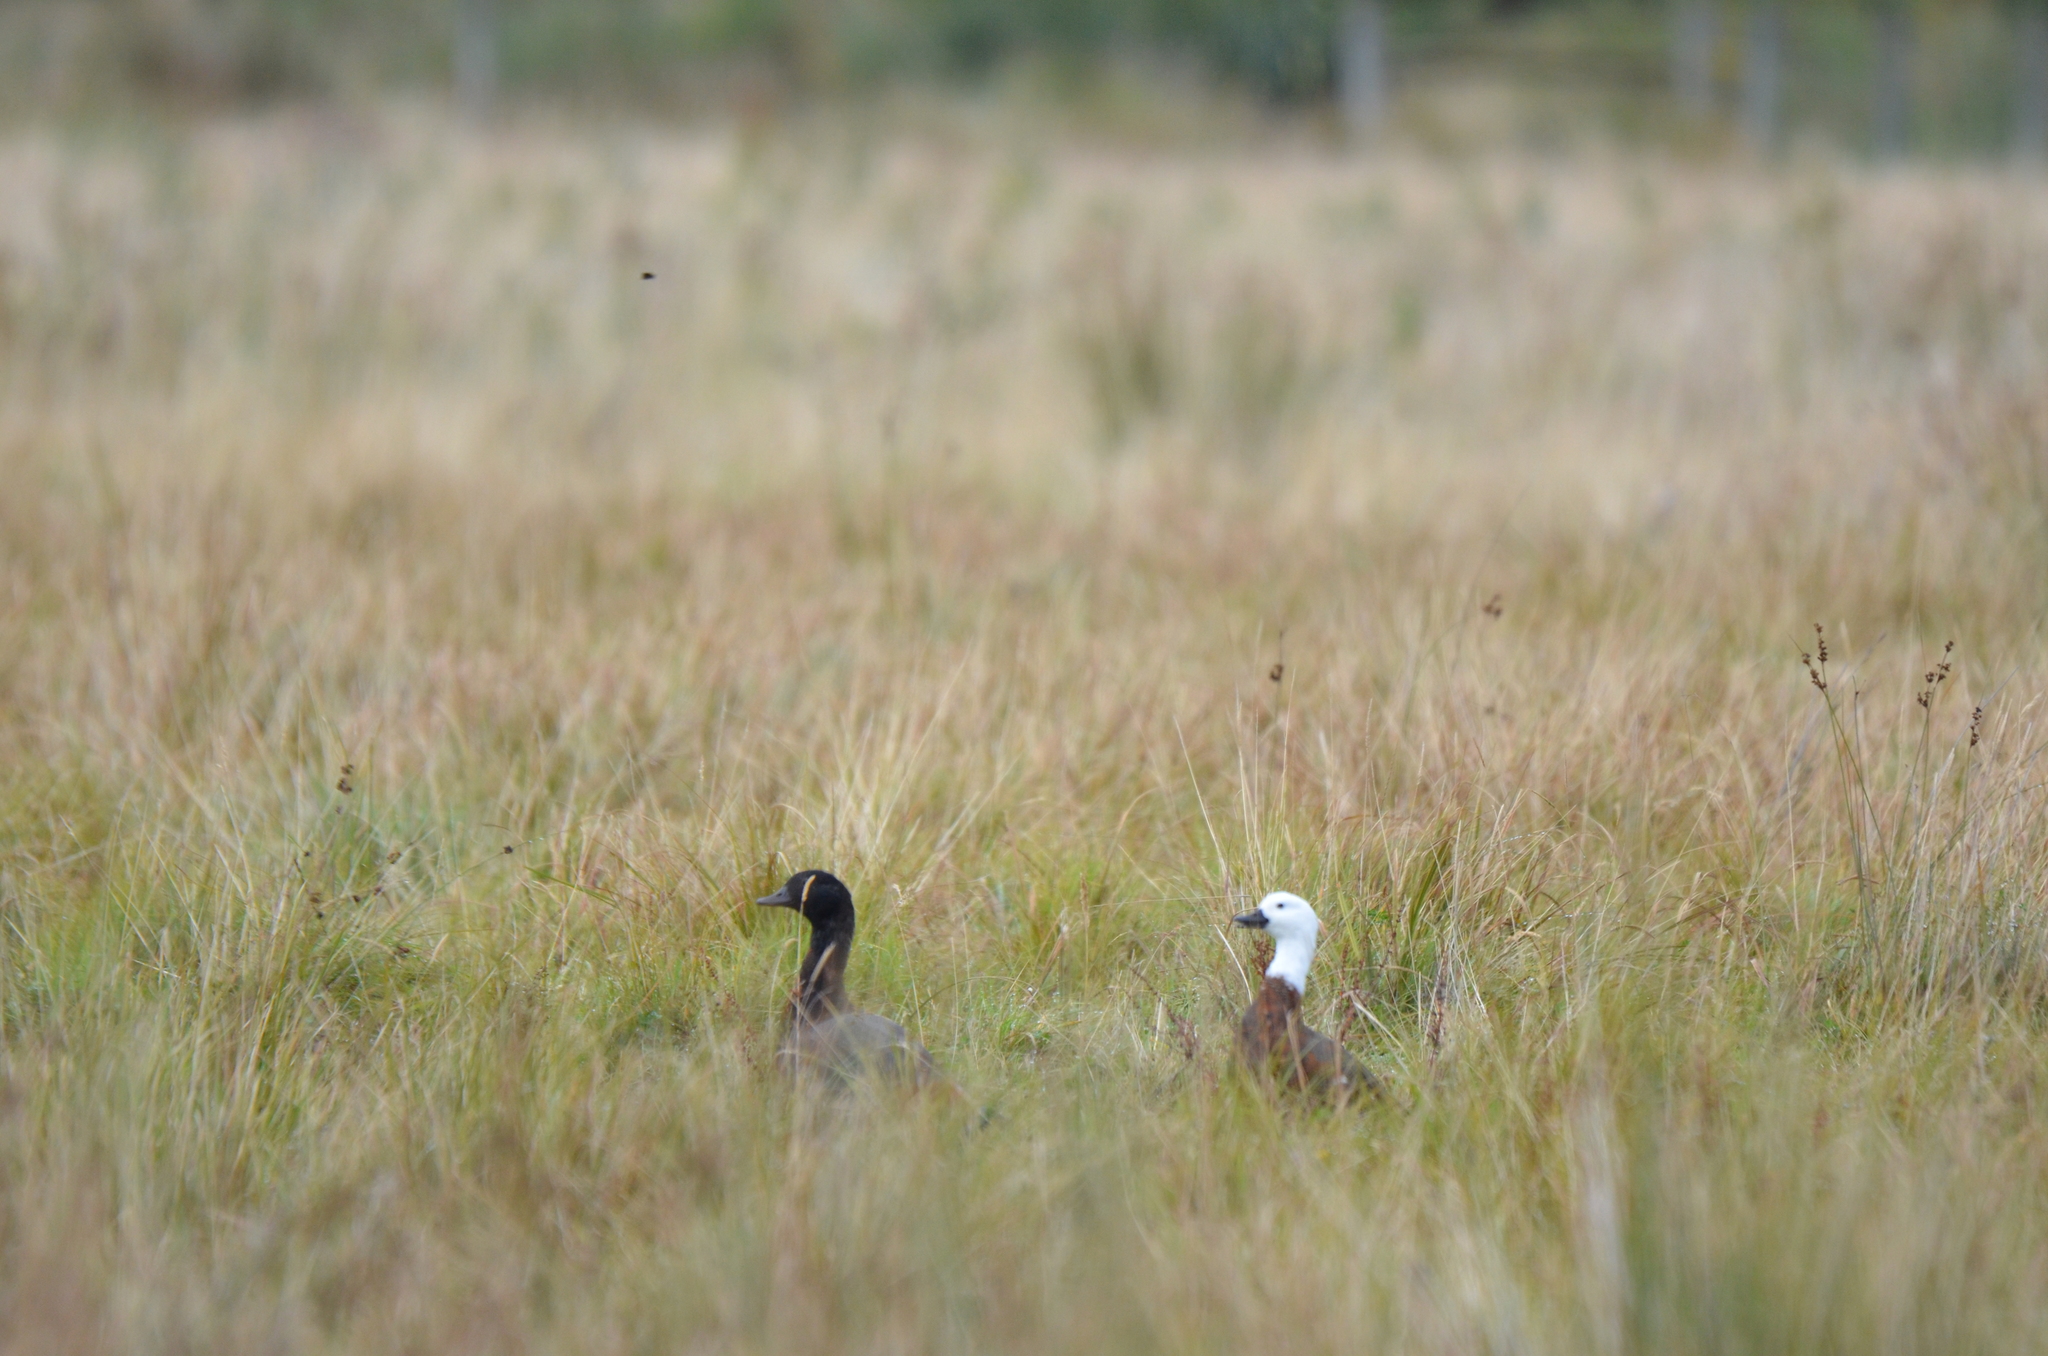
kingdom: Animalia
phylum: Chordata
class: Aves
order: Anseriformes
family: Anatidae
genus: Tadorna
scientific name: Tadorna variegata
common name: Paradise shelduck
